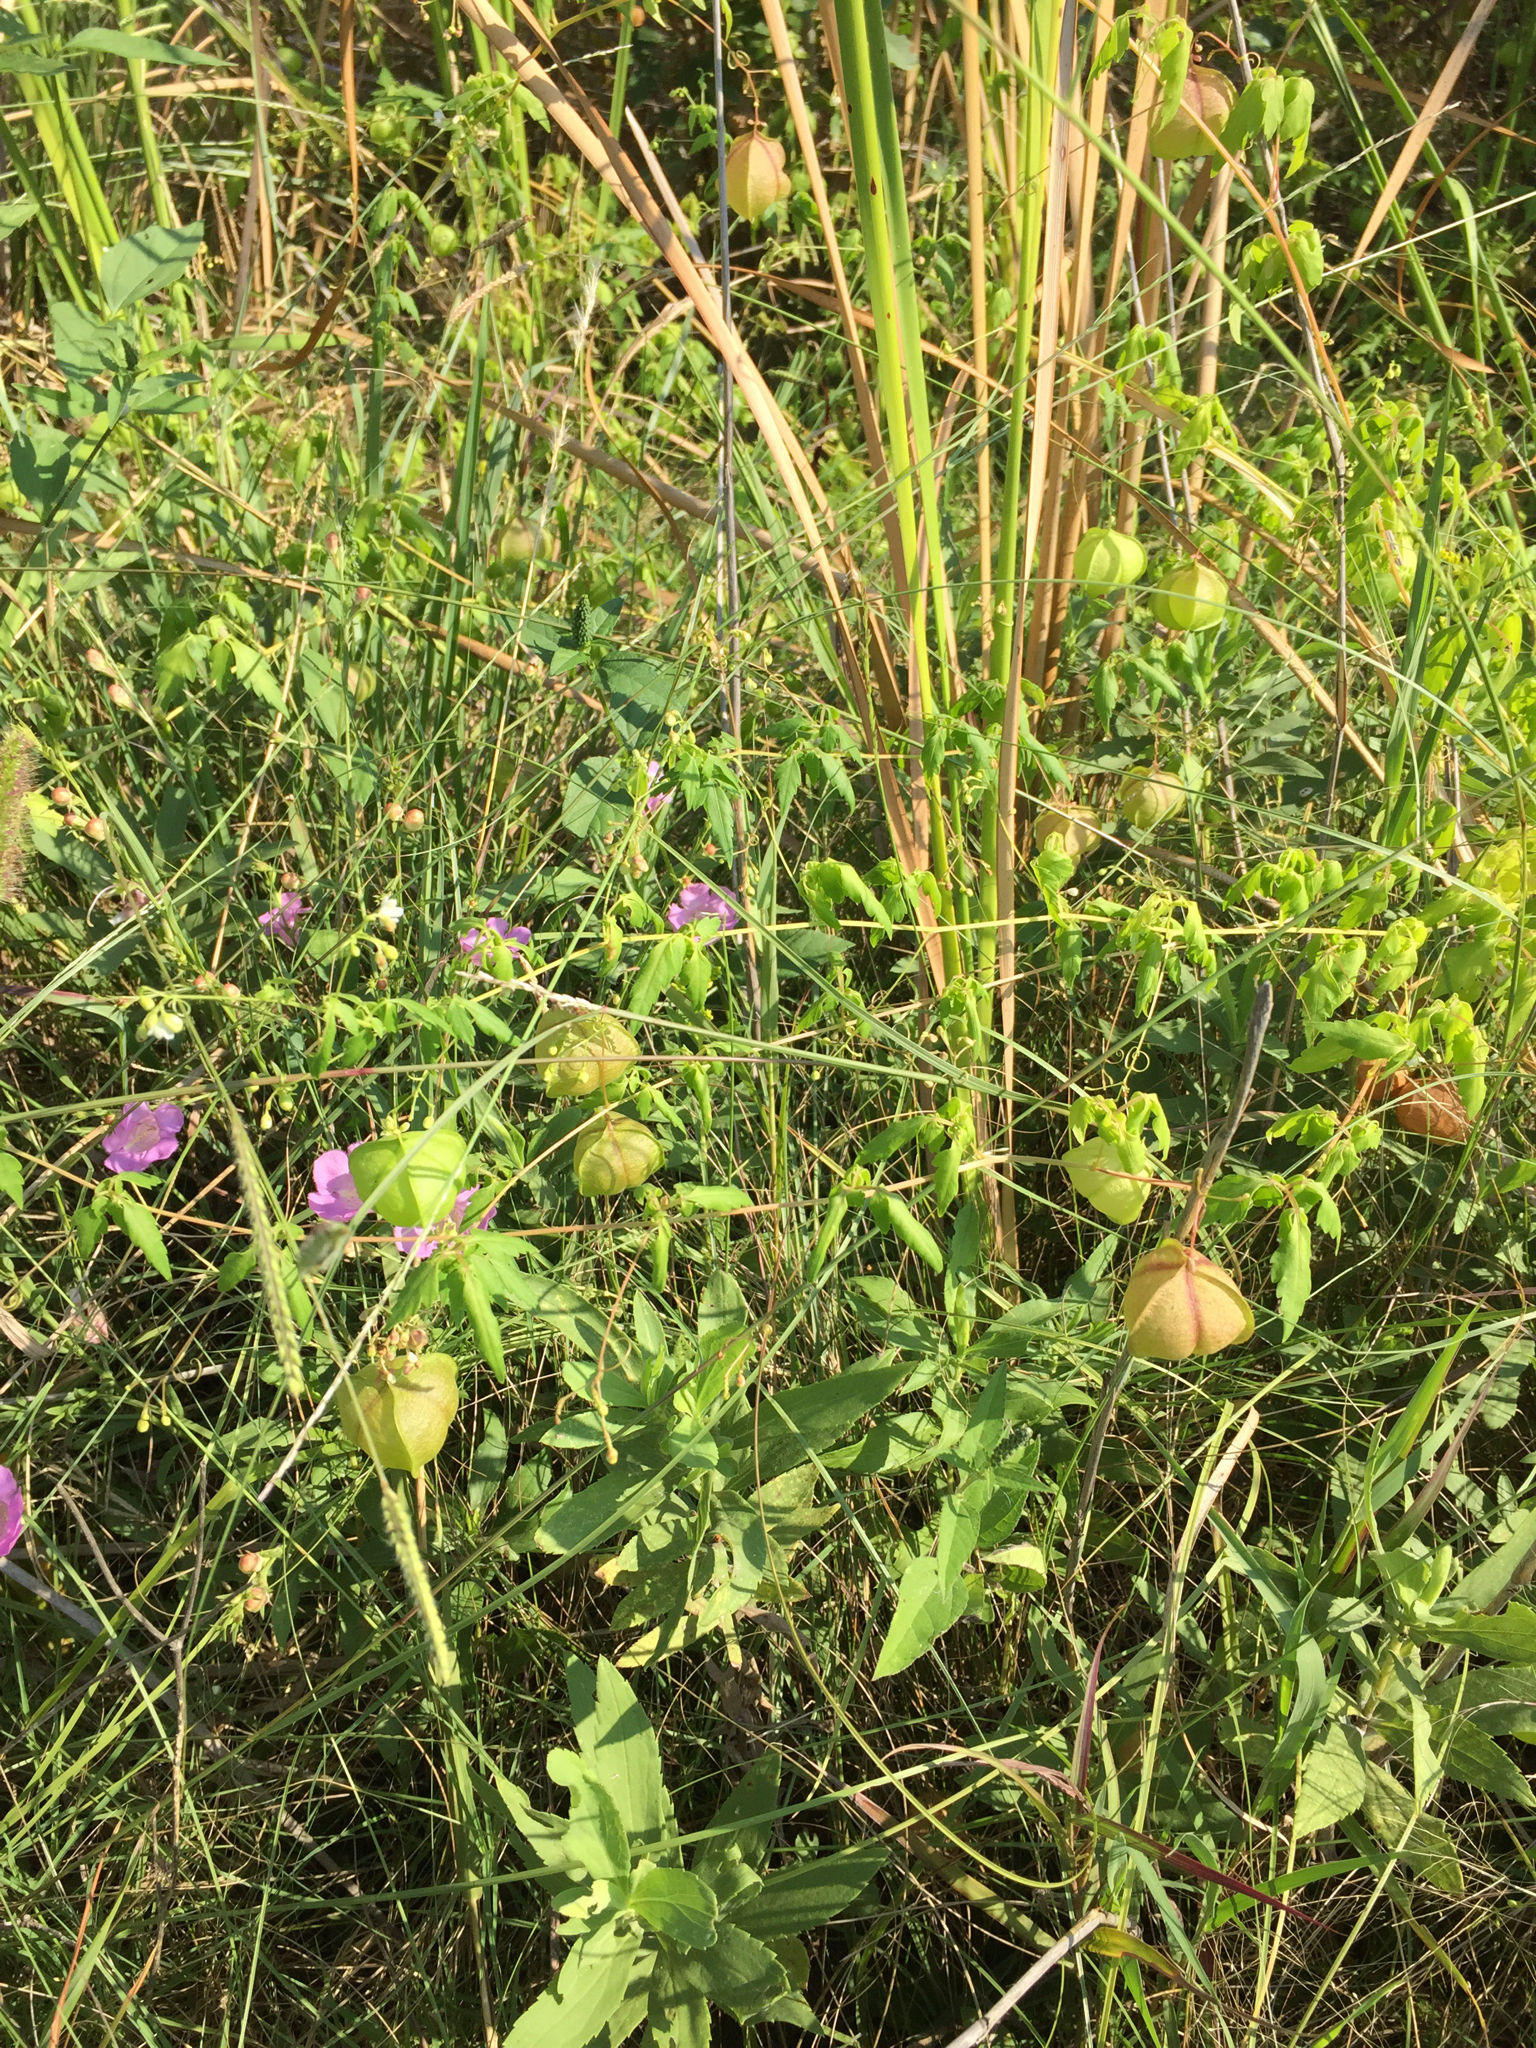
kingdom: Plantae
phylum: Tracheophyta
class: Magnoliopsida
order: Sapindales
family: Sapindaceae
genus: Cardiospermum
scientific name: Cardiospermum halicacabum
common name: Balloon vine
